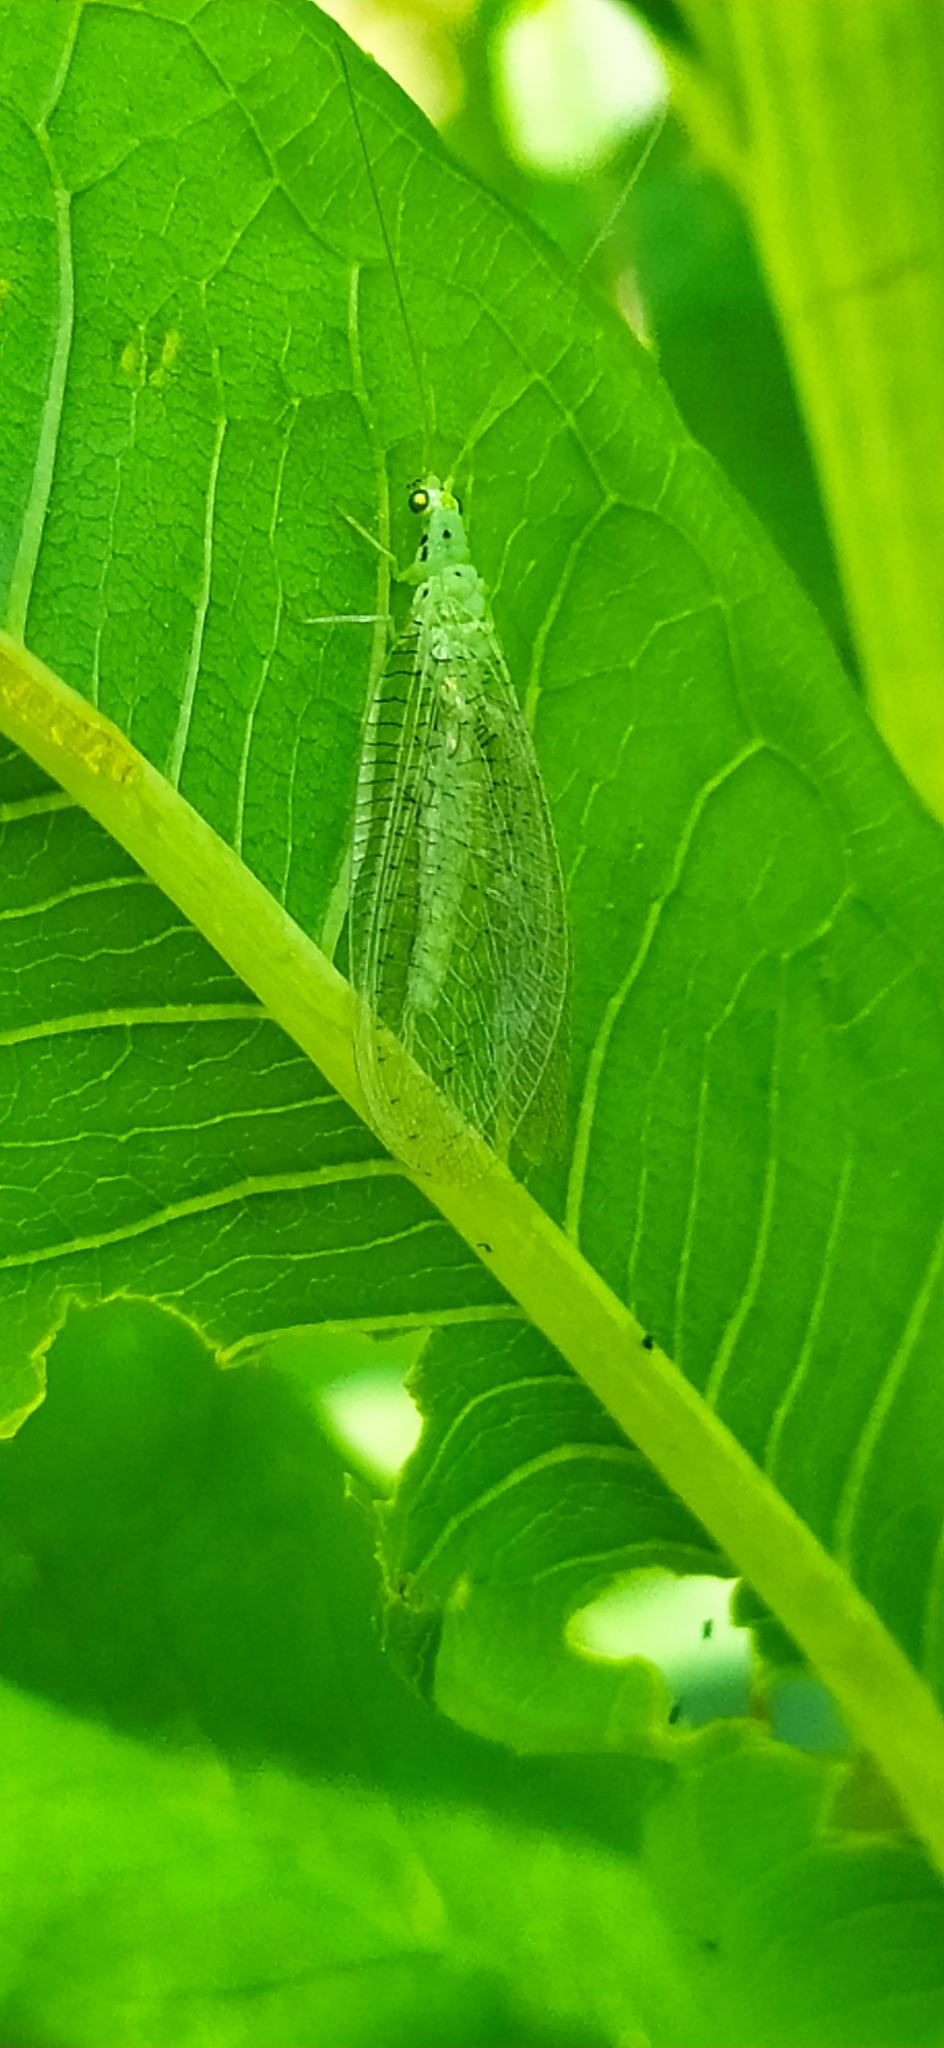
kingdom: Animalia
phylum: Arthropoda
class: Insecta
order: Neuroptera
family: Chrysopidae
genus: Pseudomallada
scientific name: Pseudomallada ventralis
